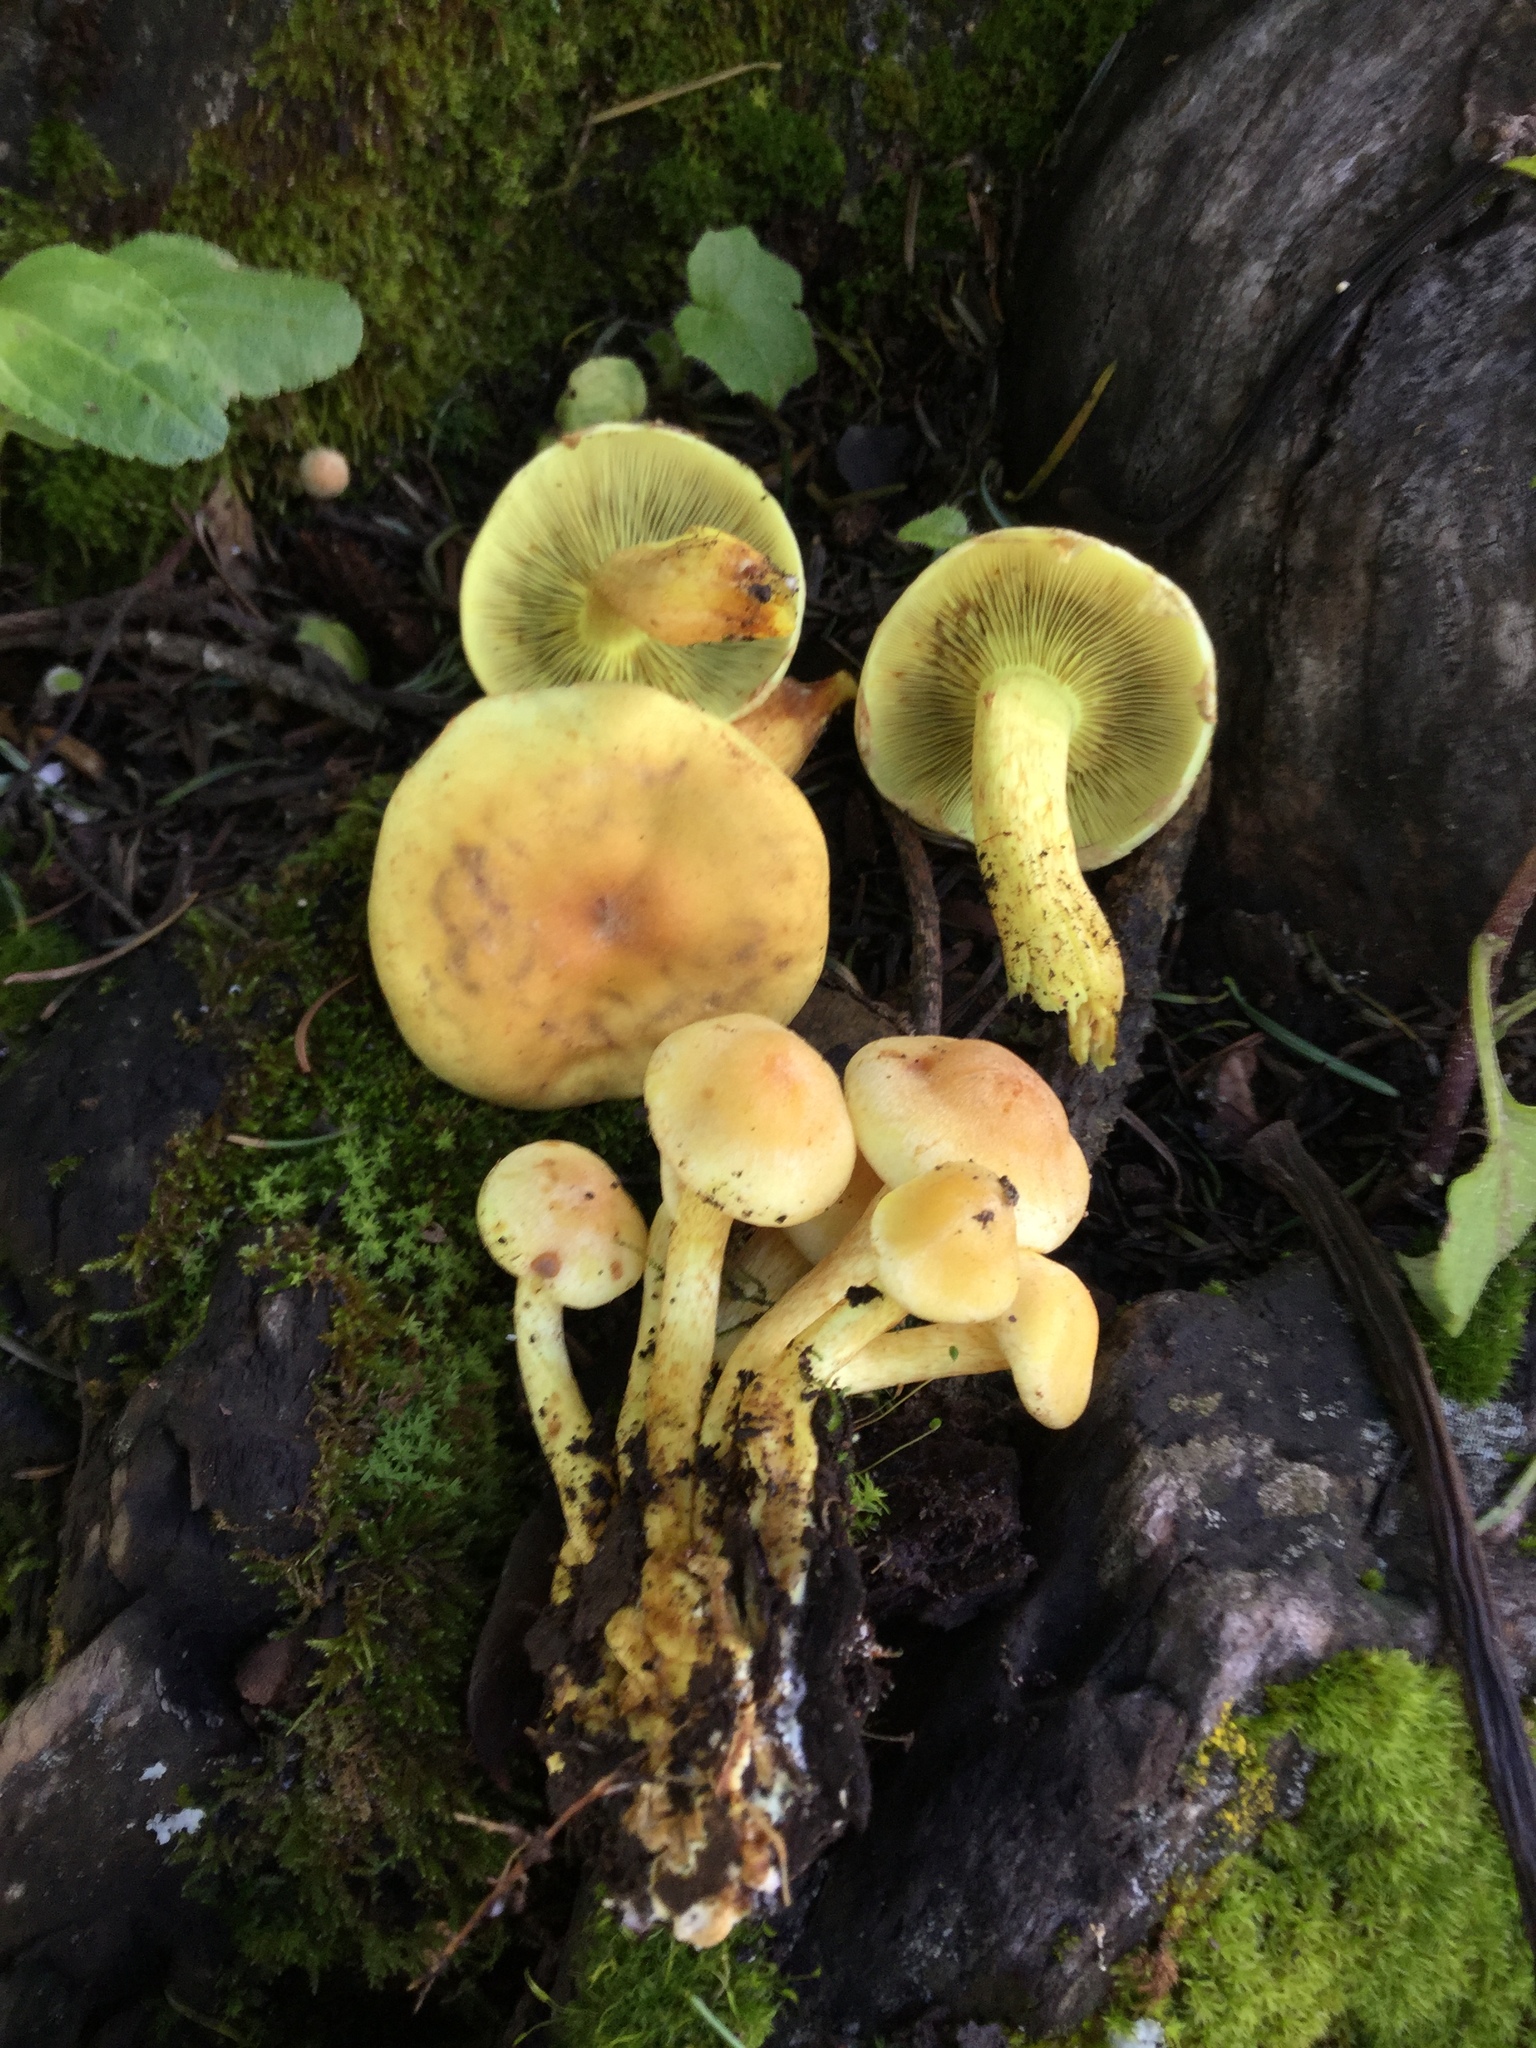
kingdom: Fungi
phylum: Basidiomycota
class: Agaricomycetes
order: Agaricales
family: Strophariaceae
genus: Hypholoma
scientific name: Hypholoma fasciculare
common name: Sulphur tuft
